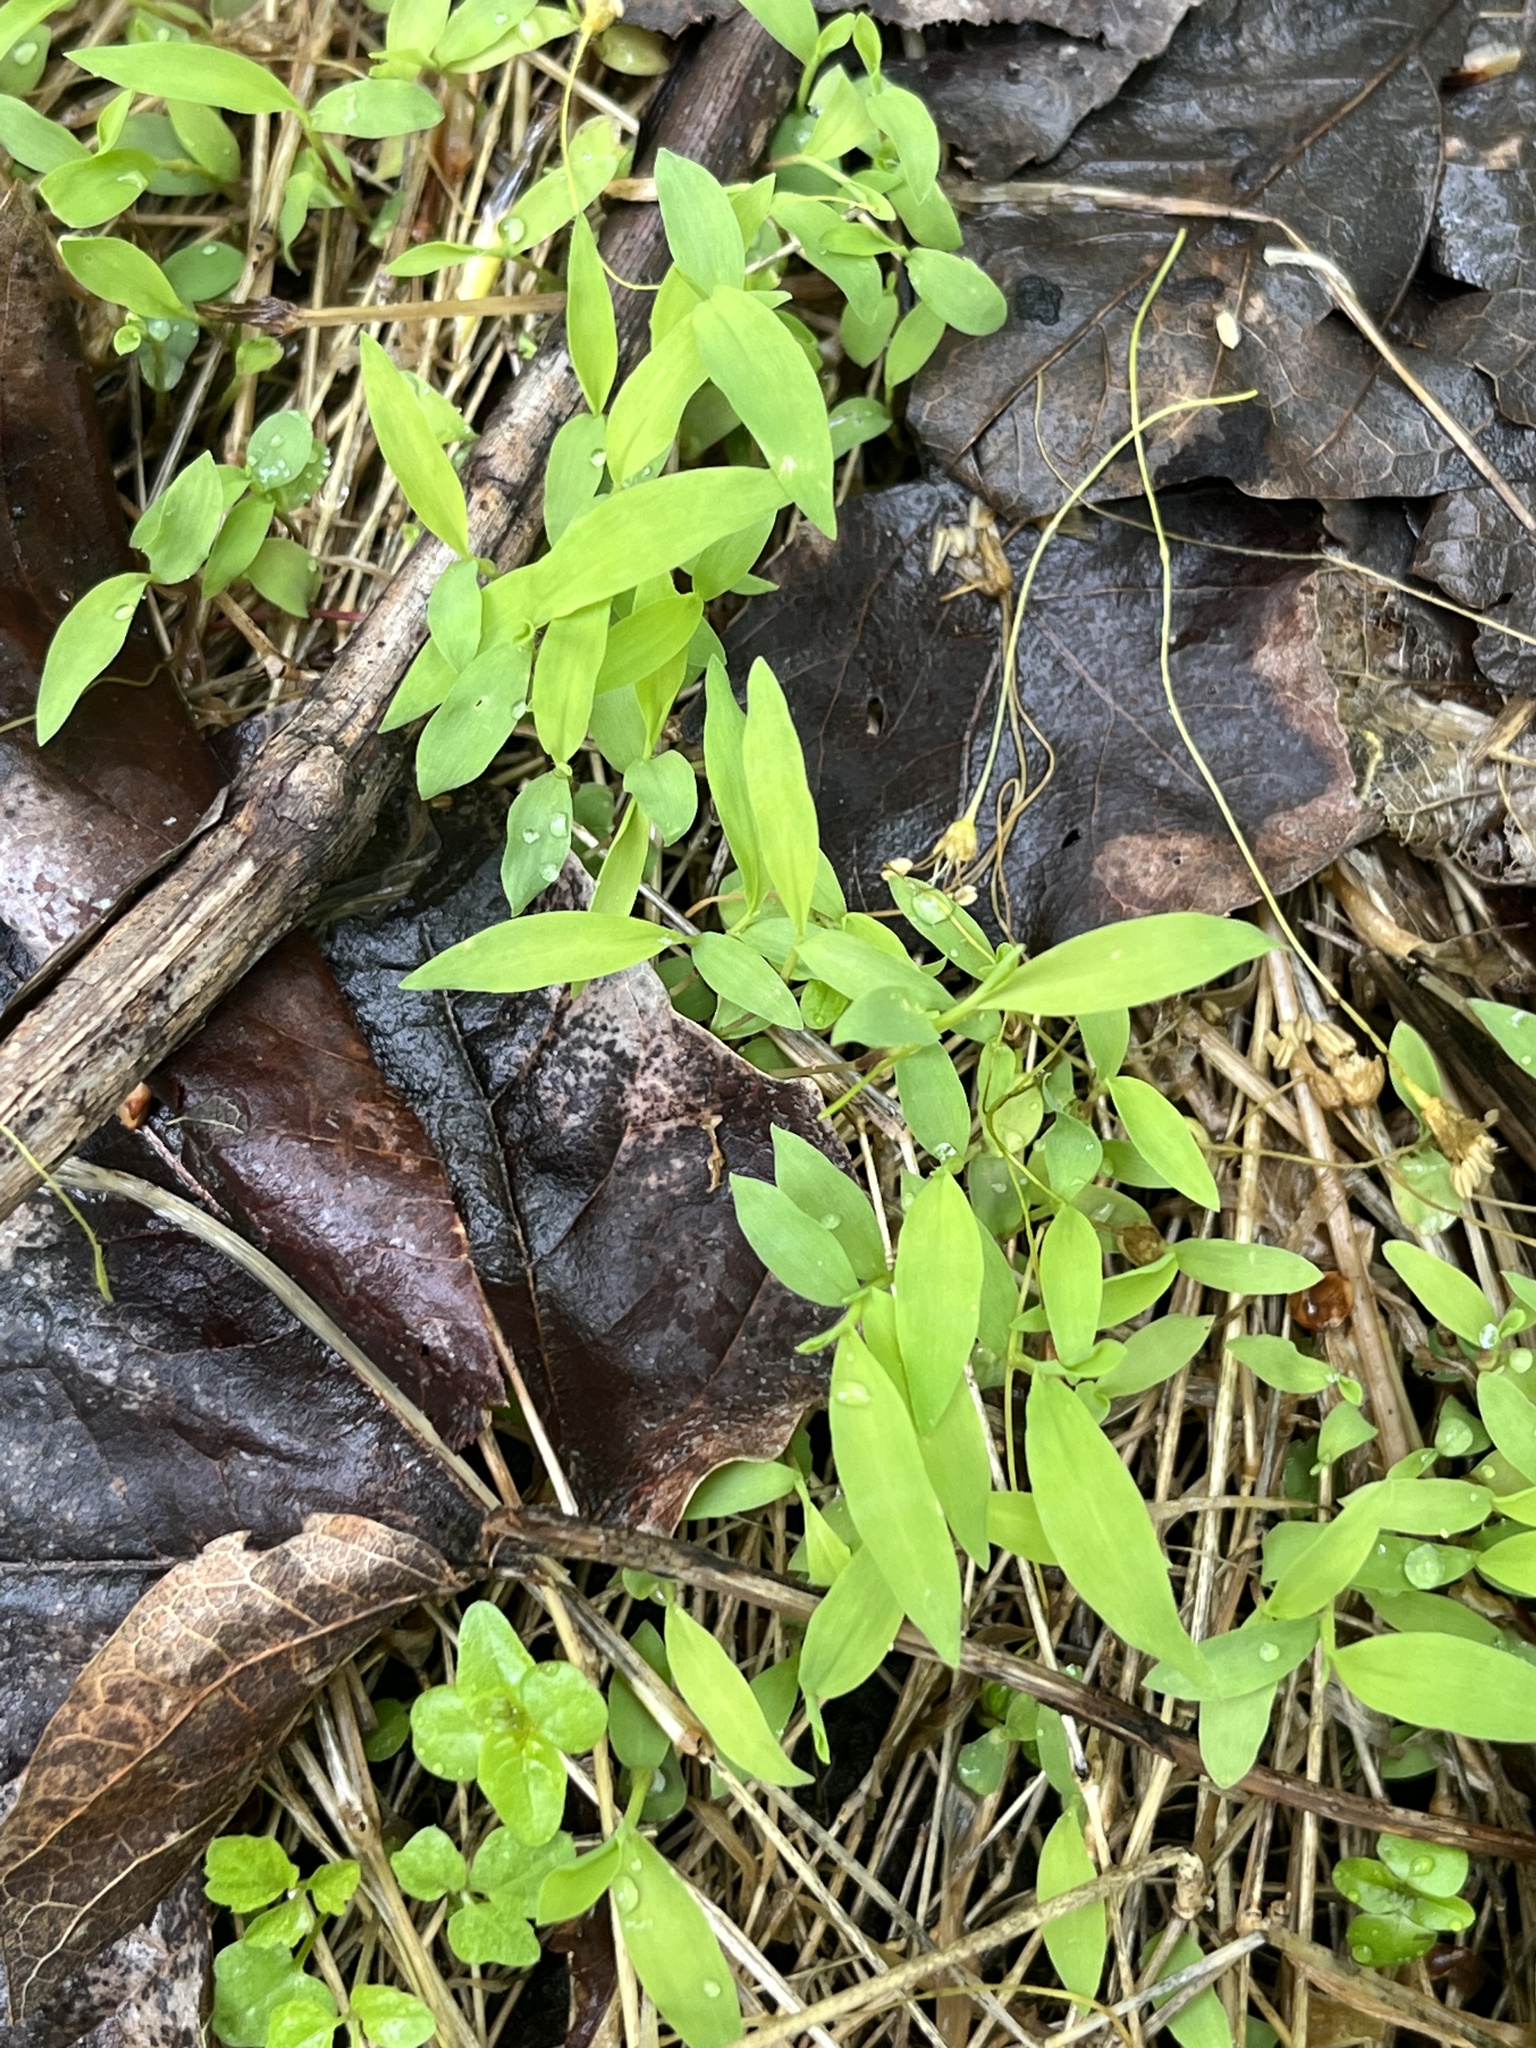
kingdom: Plantae
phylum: Tracheophyta
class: Liliopsida
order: Poales
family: Poaceae
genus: Microstegium
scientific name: Microstegium vimineum
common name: Japanese stiltgrass
